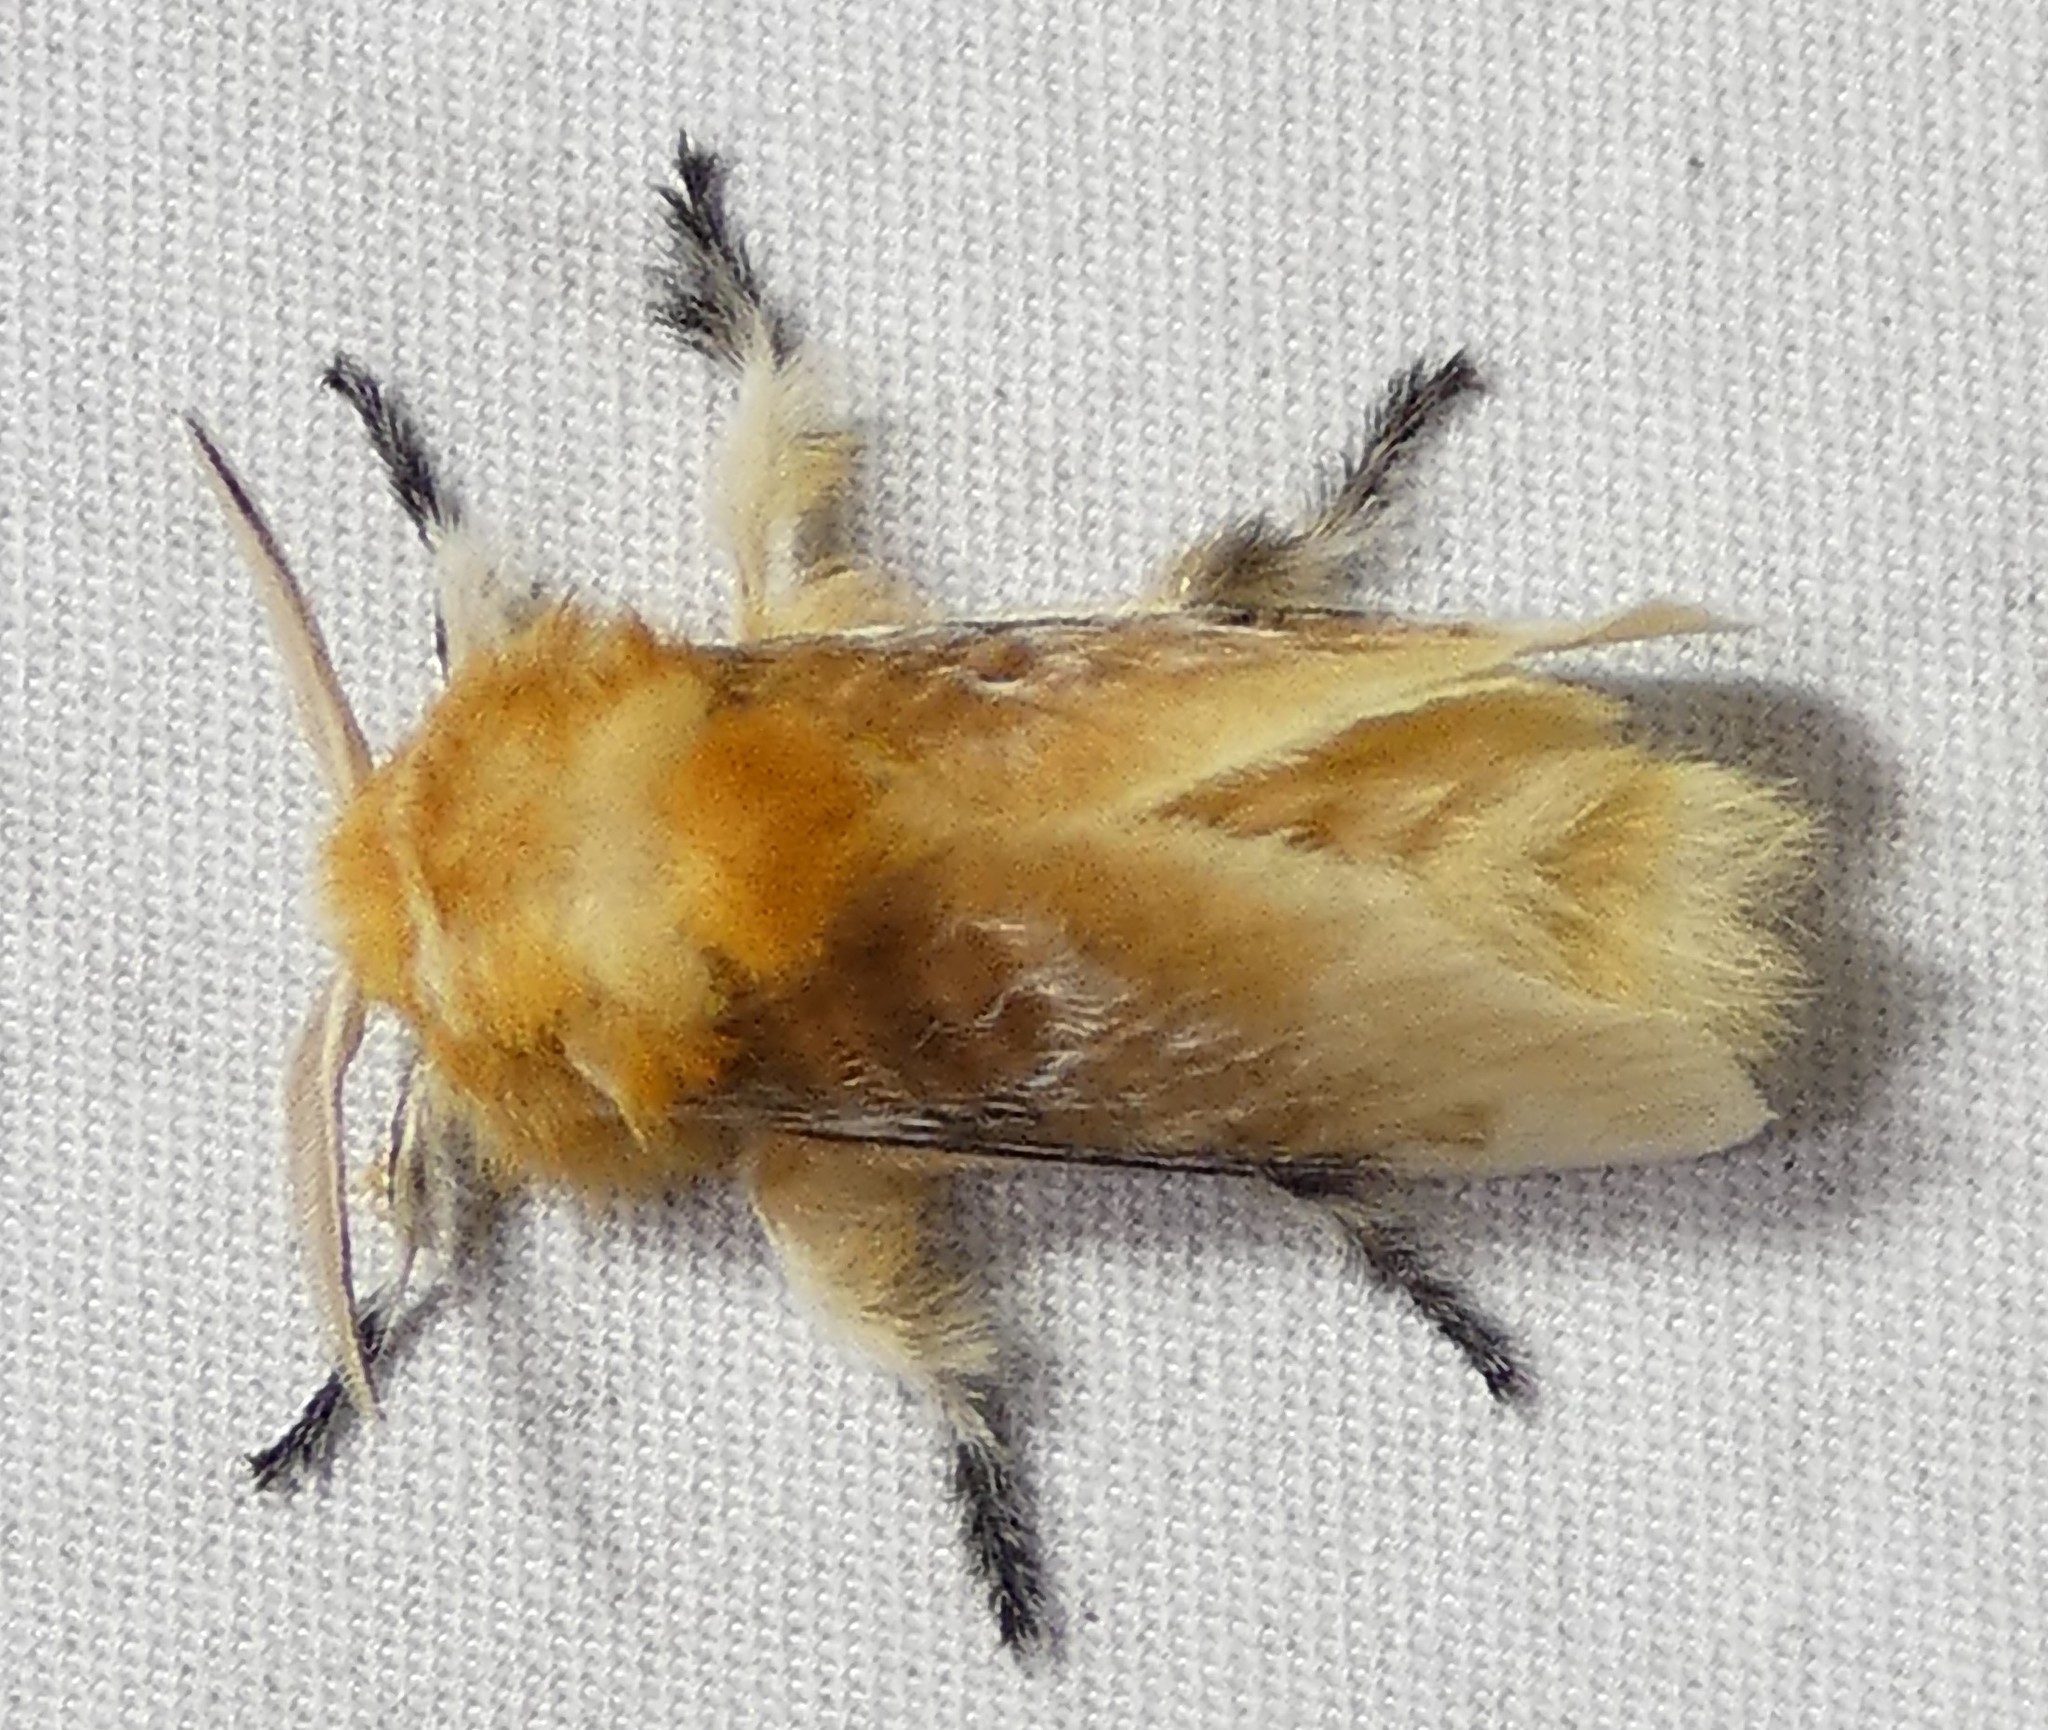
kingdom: Animalia
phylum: Arthropoda
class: Insecta
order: Lepidoptera
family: Megalopygidae
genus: Megalopyge
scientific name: Megalopyge opercularis
